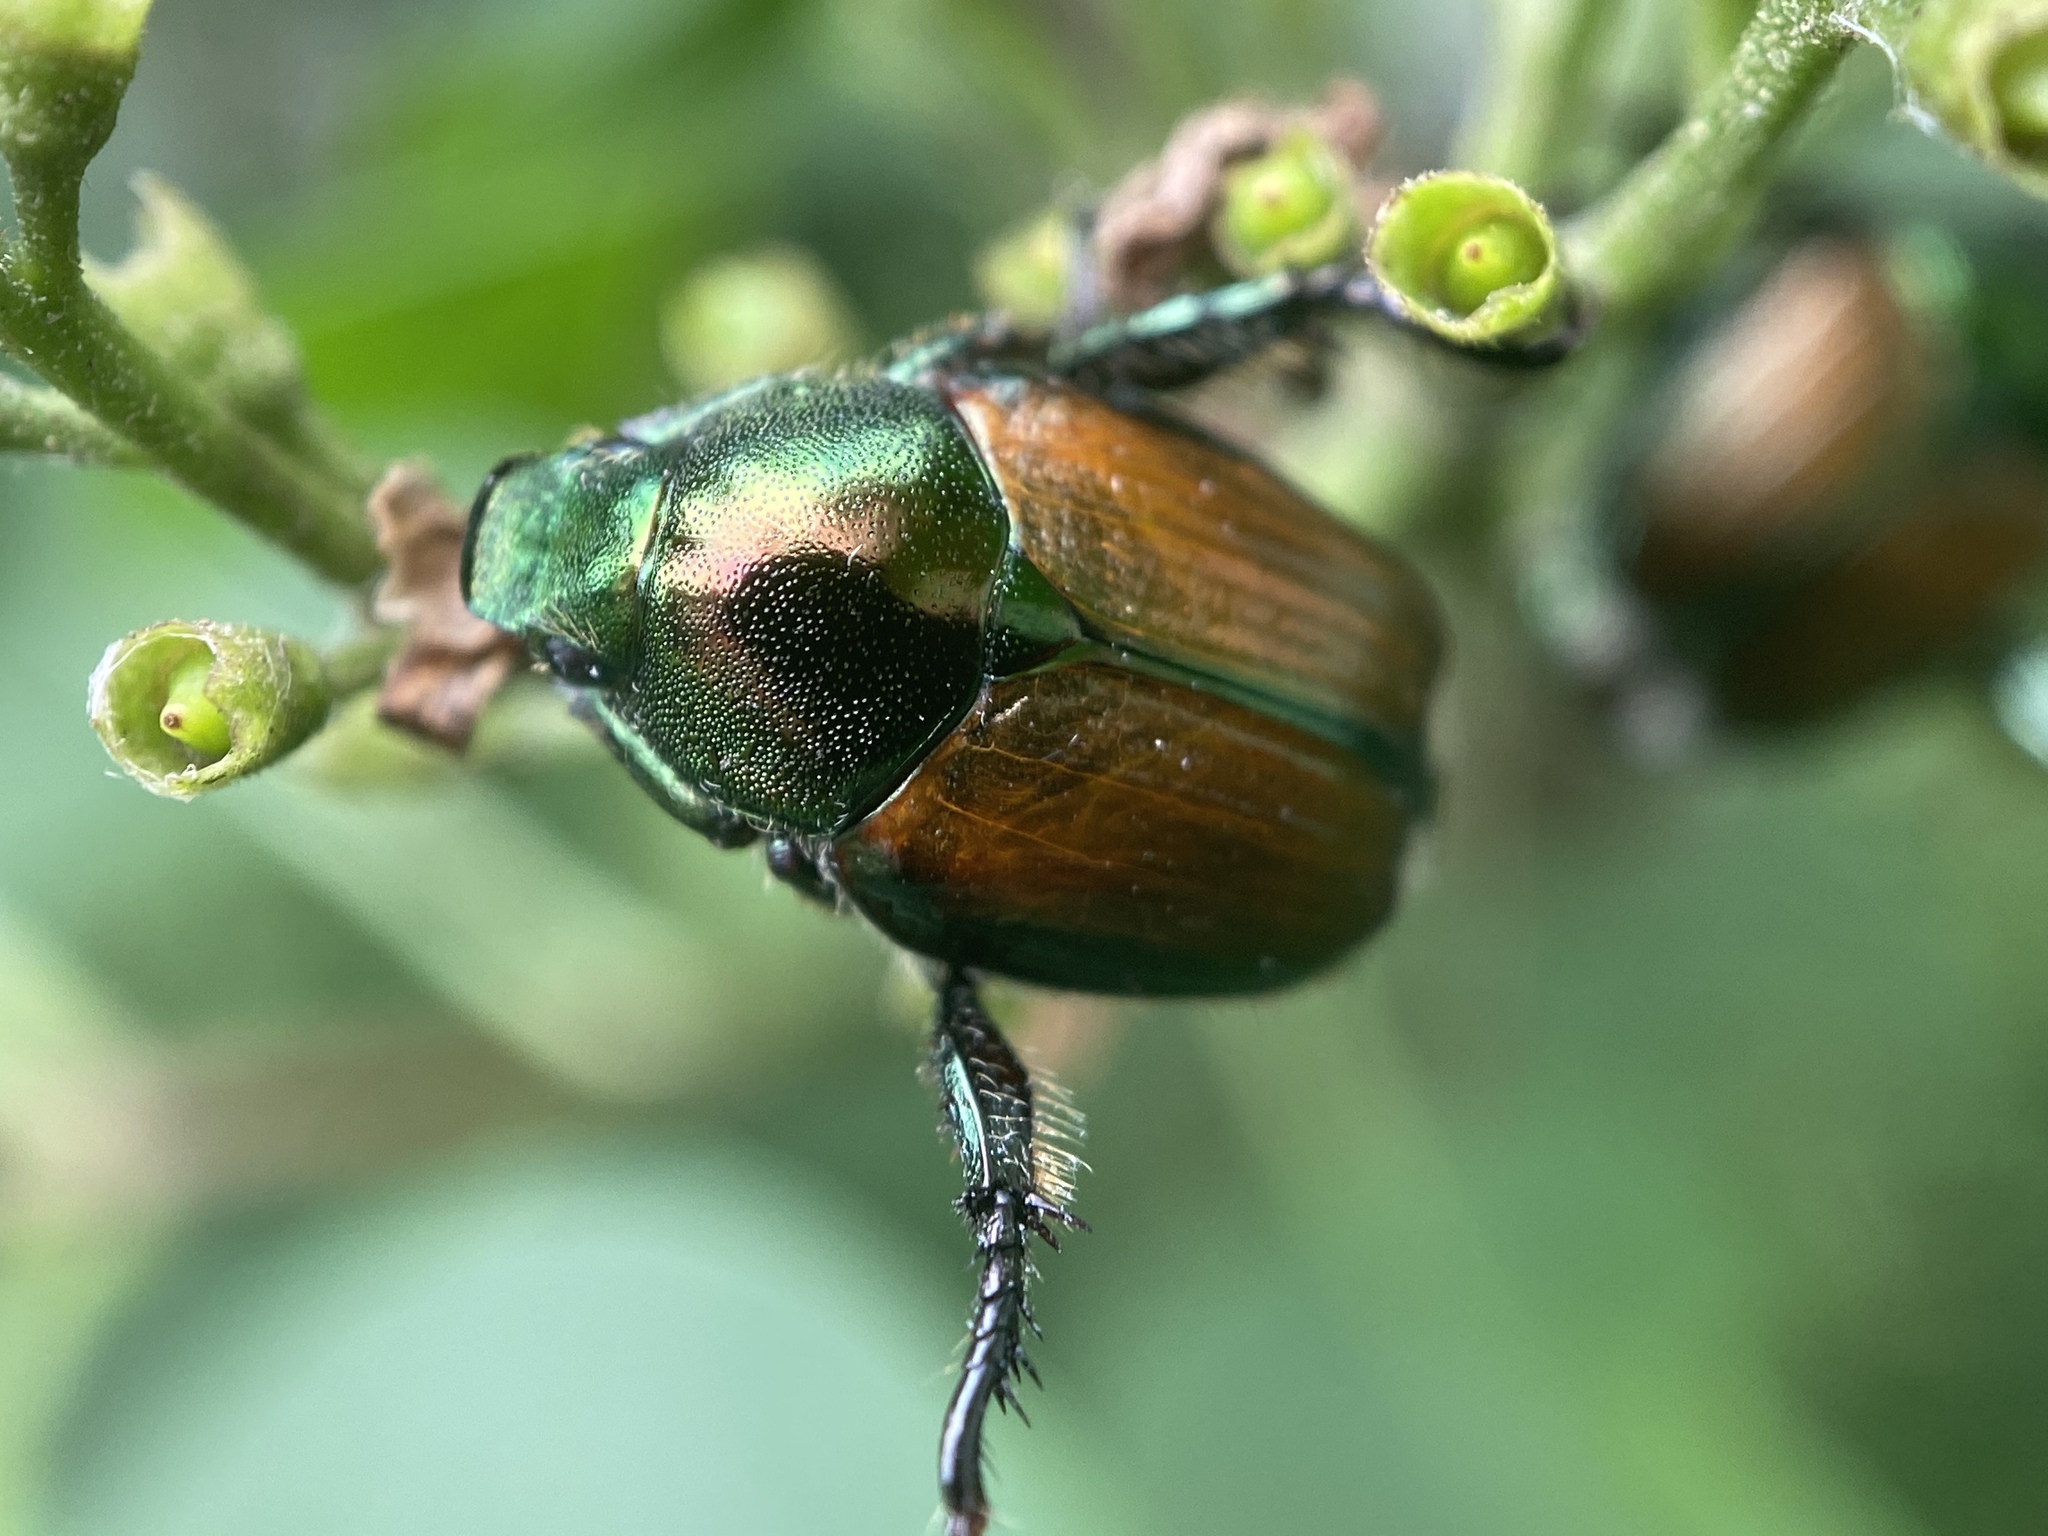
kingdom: Animalia
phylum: Arthropoda
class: Insecta
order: Coleoptera
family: Scarabaeidae
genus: Popillia
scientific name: Popillia japonica
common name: Japanese beetle
